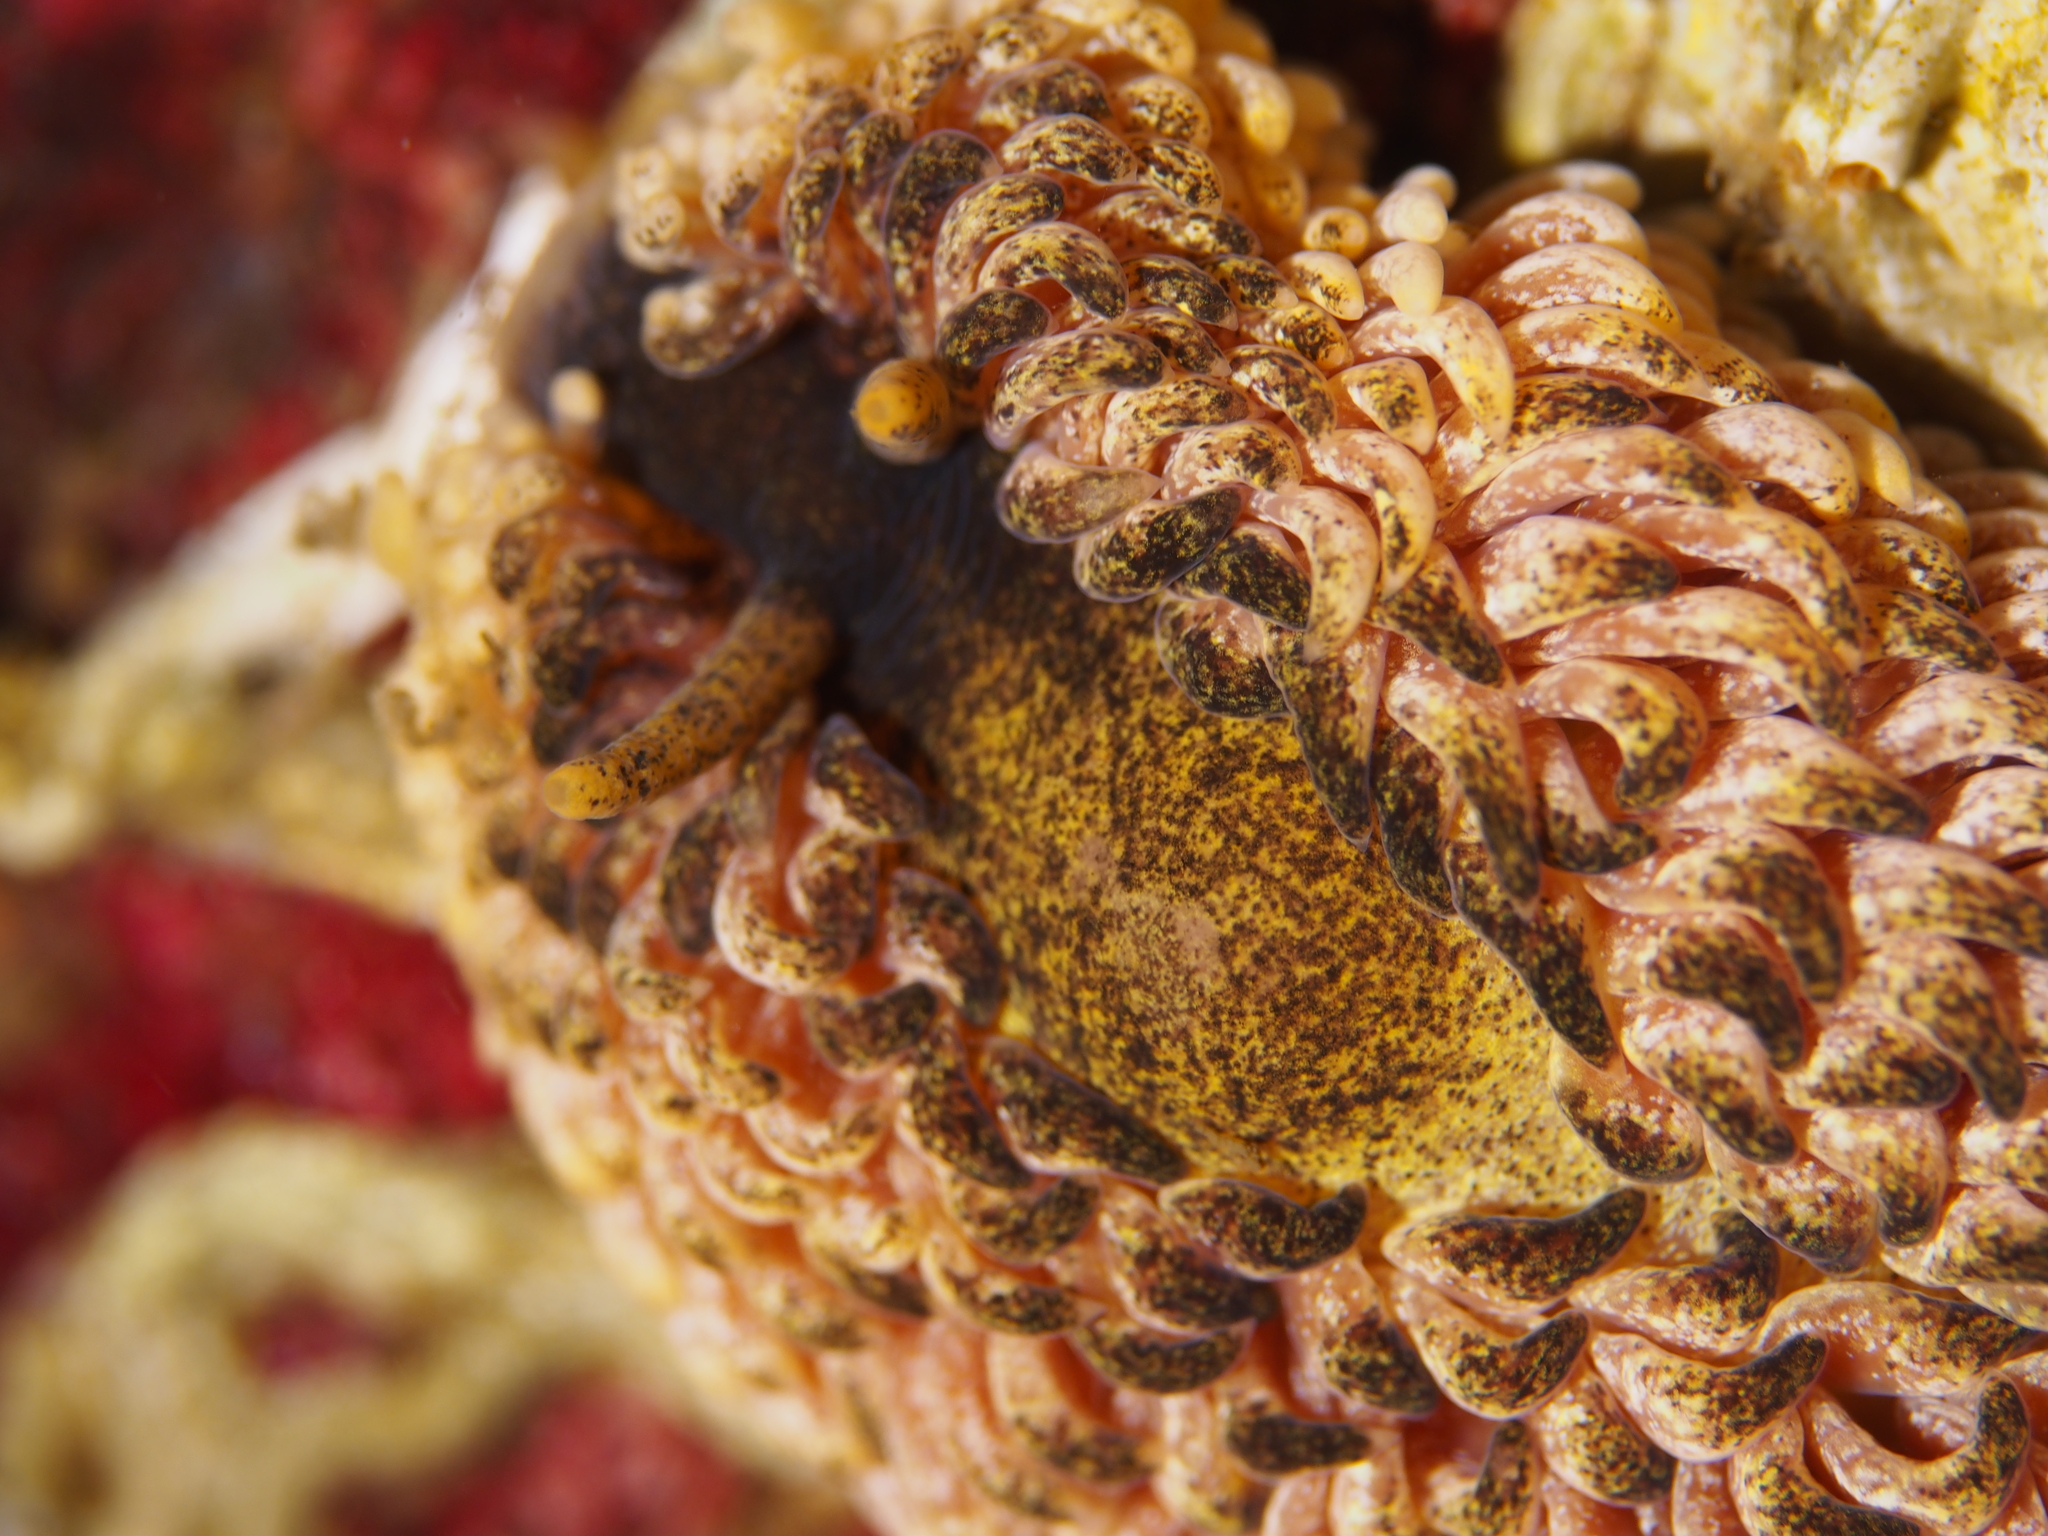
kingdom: Animalia
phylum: Mollusca
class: Gastropoda
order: Nudibranchia
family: Aeolidiidae
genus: Aeolidia
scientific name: Aeolidia papillosa
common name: Common grey sea slug
